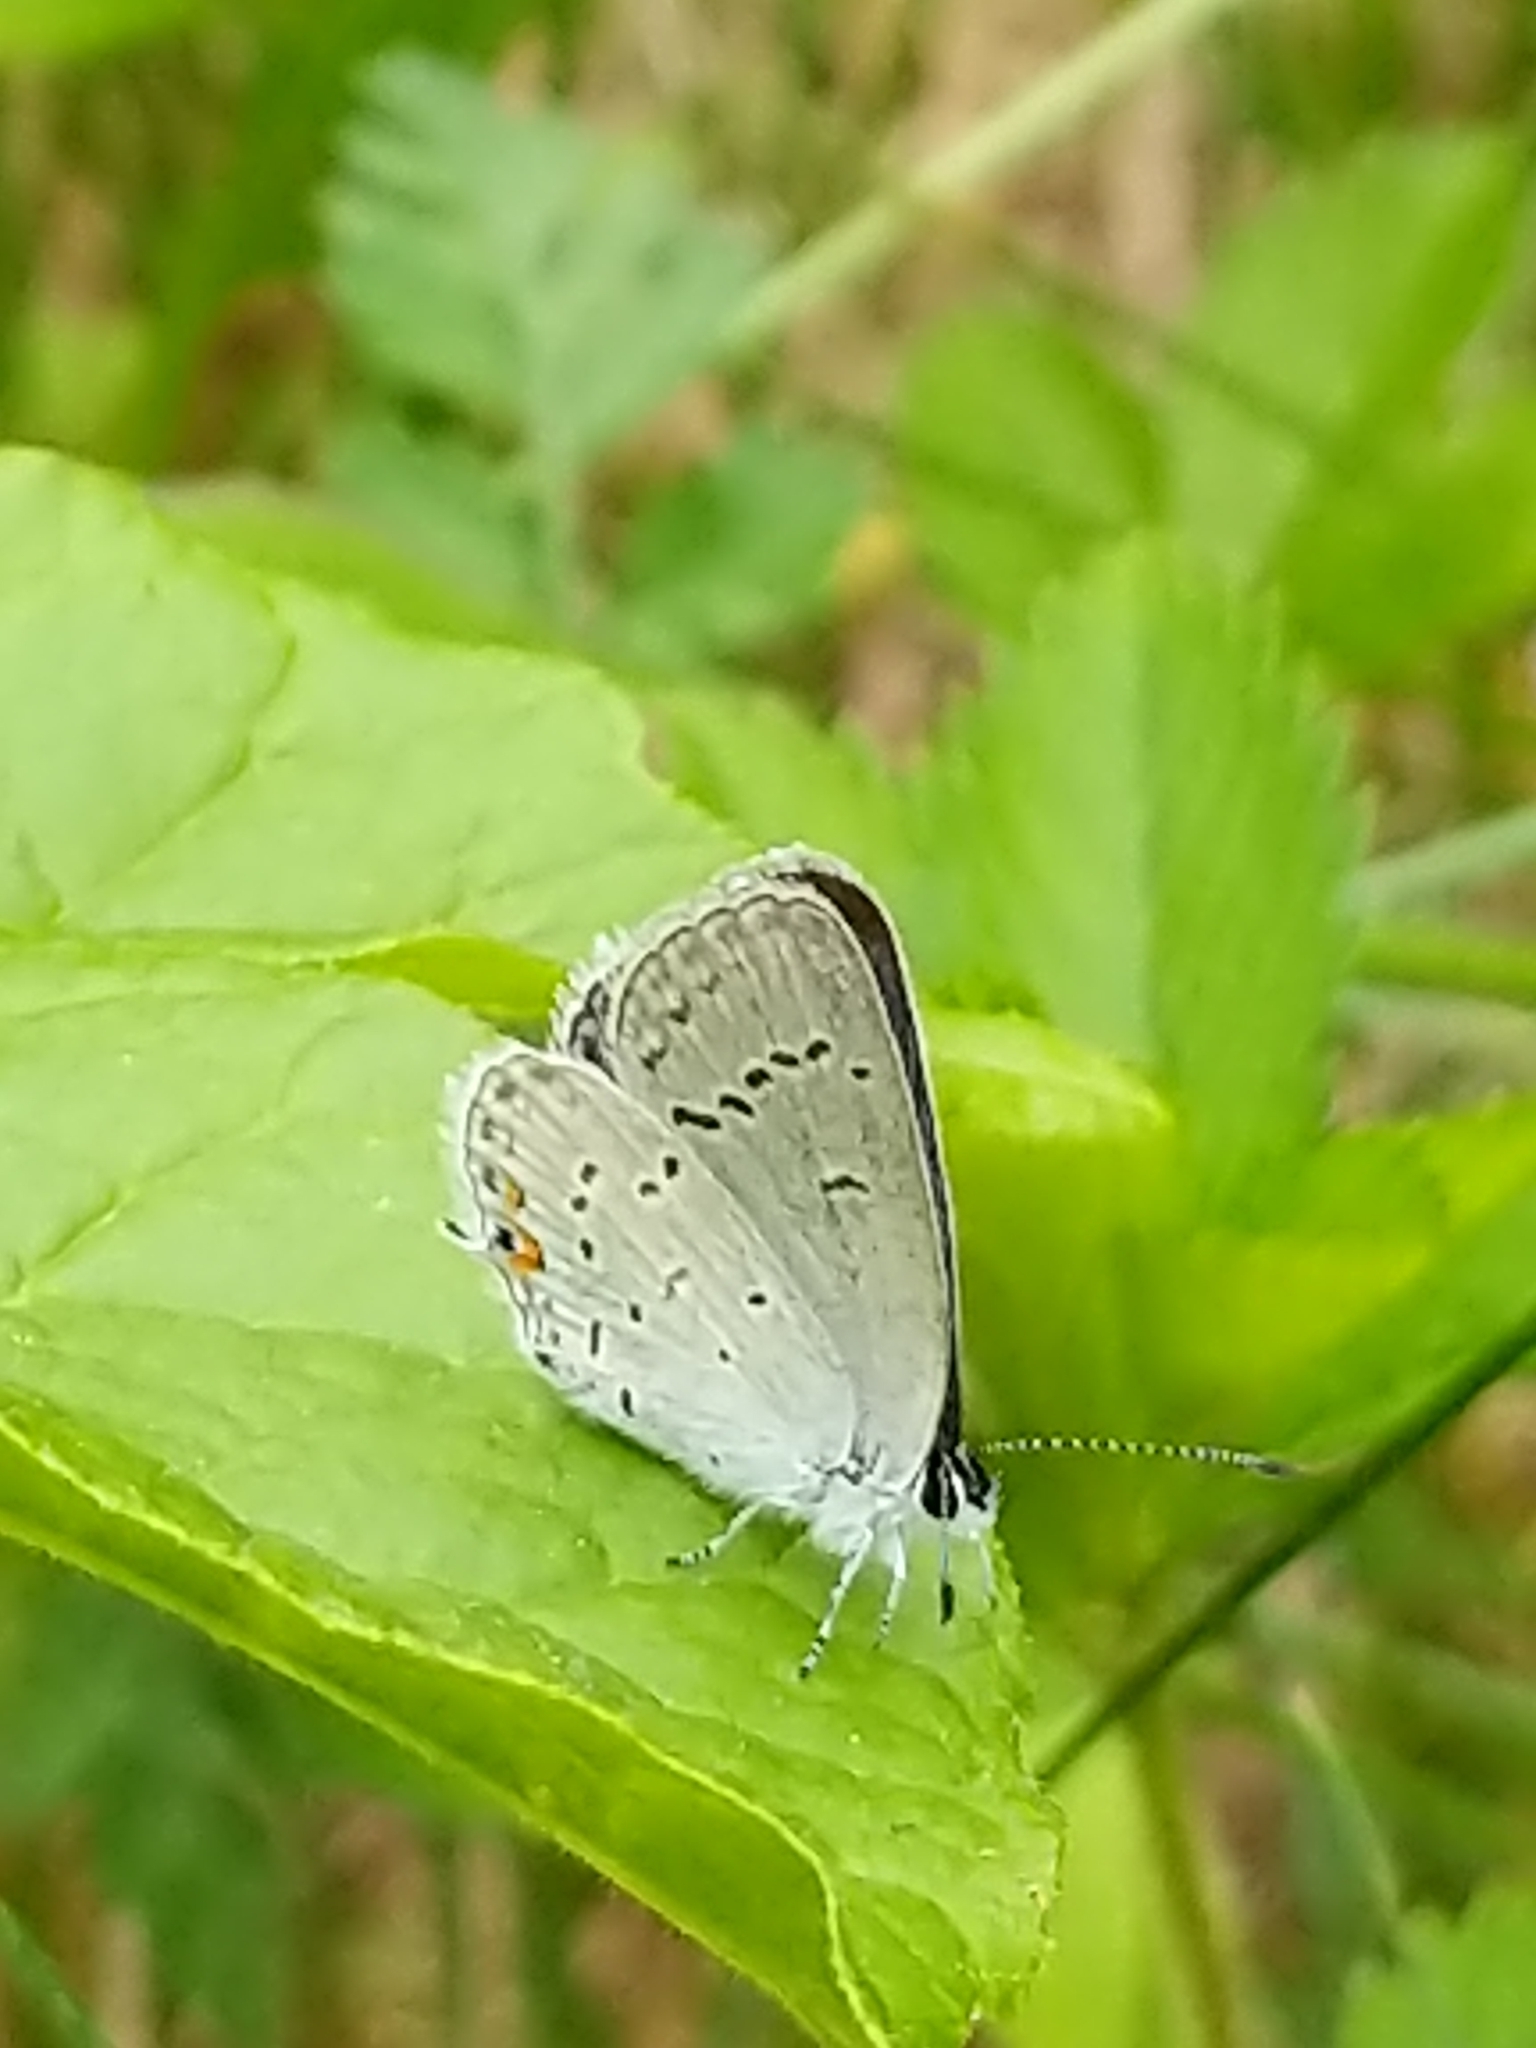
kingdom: Animalia
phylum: Arthropoda
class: Insecta
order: Lepidoptera
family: Lycaenidae
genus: Elkalyce
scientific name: Elkalyce comyntas
